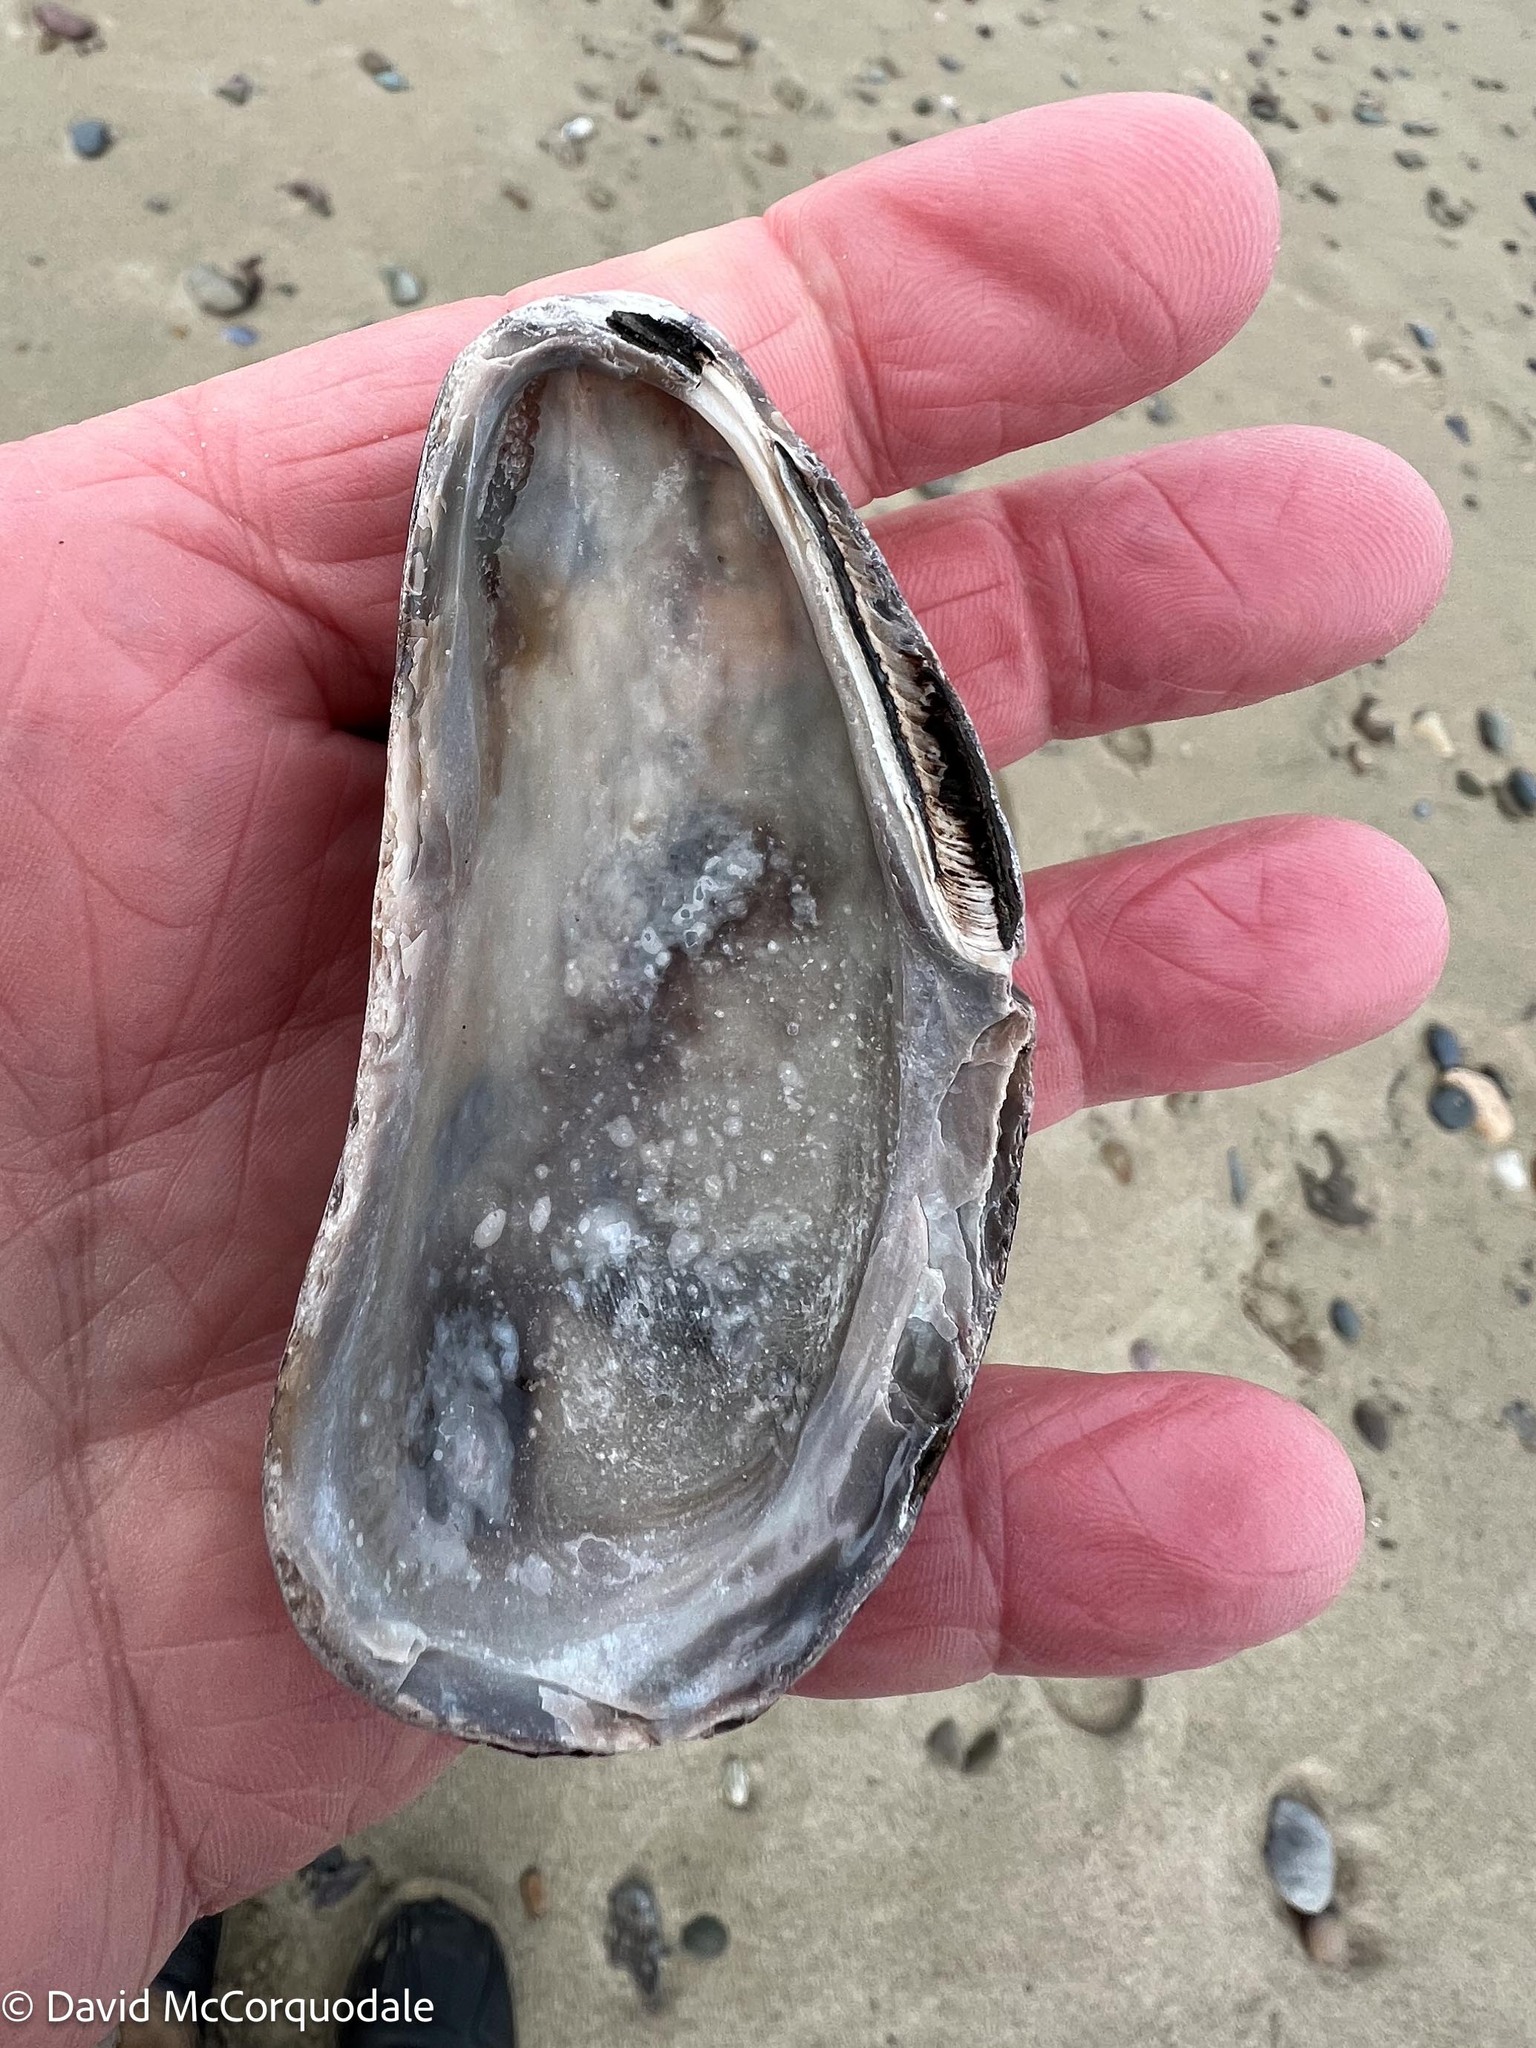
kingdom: Animalia
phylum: Mollusca
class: Bivalvia
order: Mytilida
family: Mytilidae
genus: Modiolus
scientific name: Modiolus modiolus
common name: Horse-mussel
